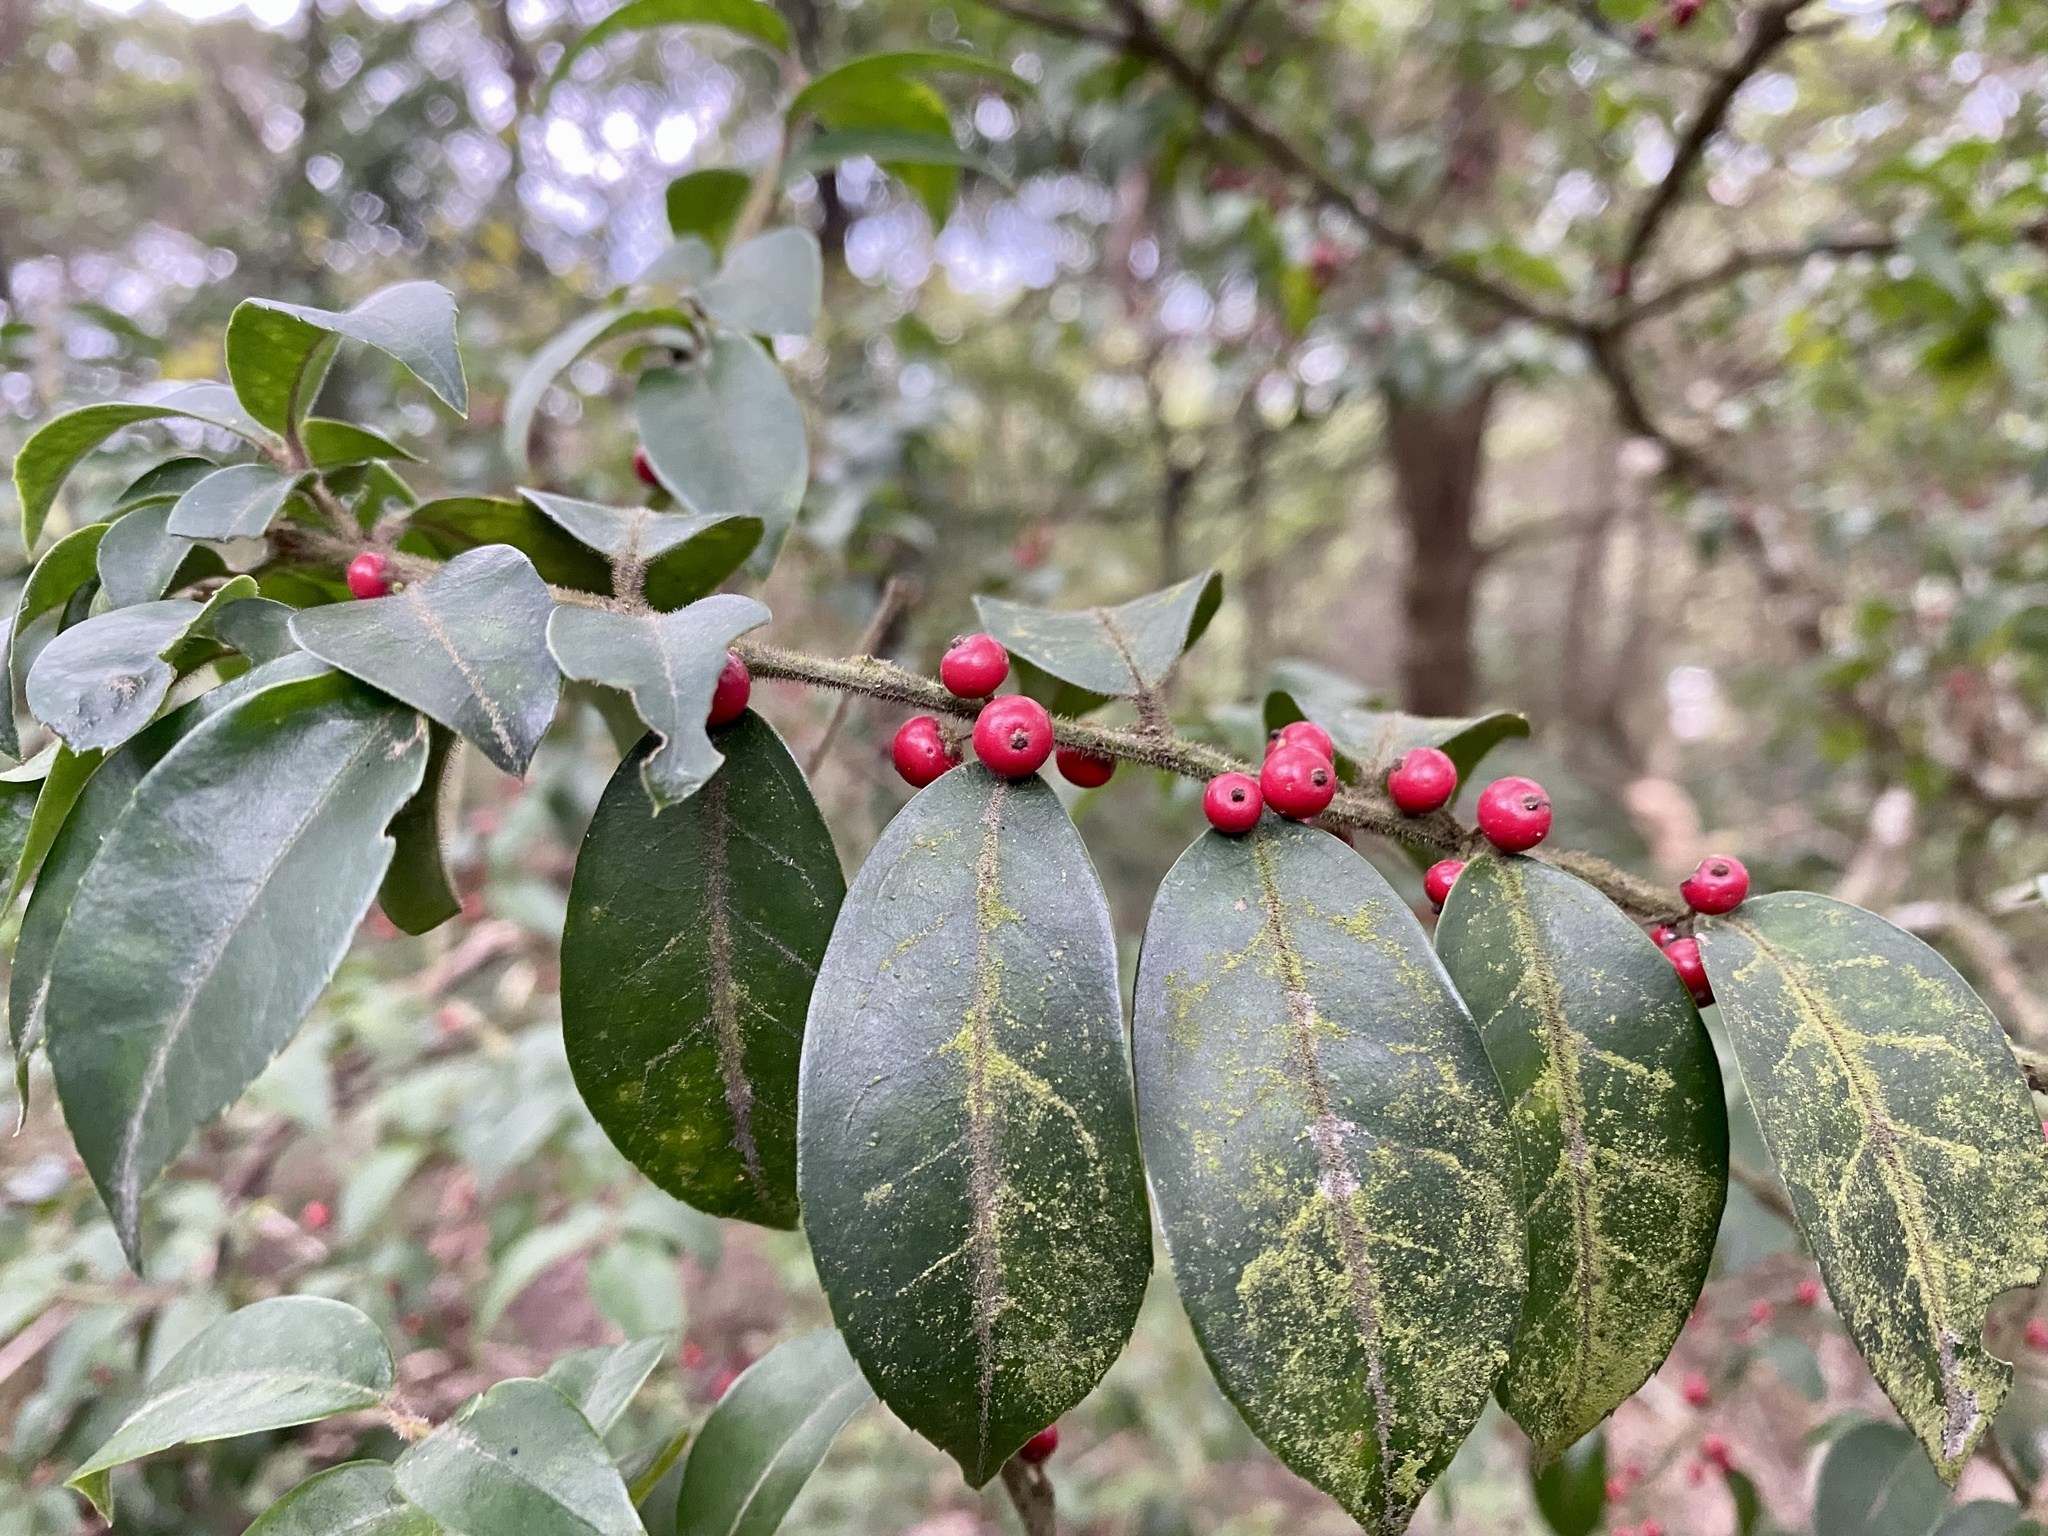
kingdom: Plantae
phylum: Tracheophyta
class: Magnoliopsida
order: Aquifoliales
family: Aquifoliaceae
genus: Ilex
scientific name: Ilex pubescens
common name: Pubescent holly
